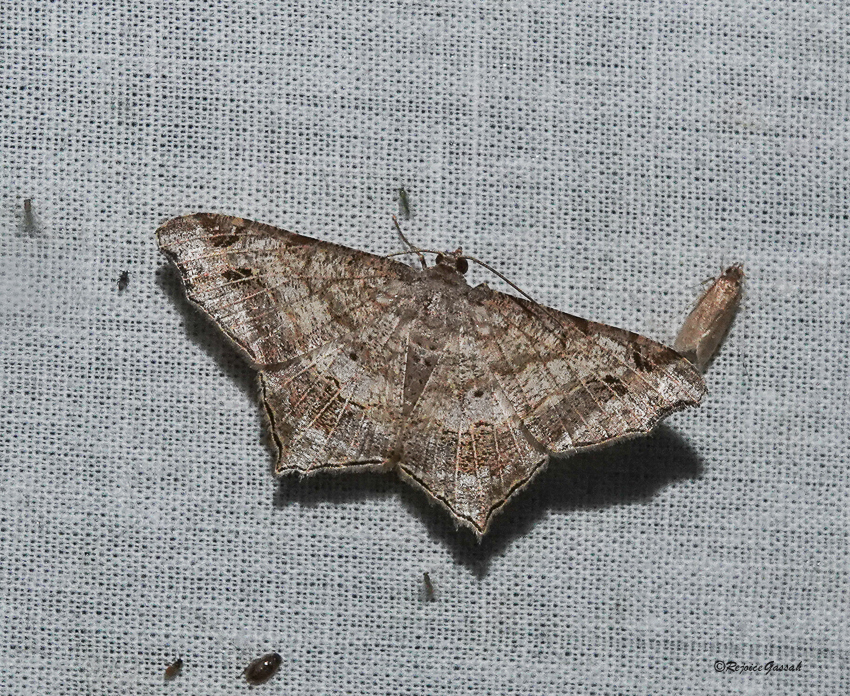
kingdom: Animalia
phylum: Arthropoda
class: Insecta
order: Lepidoptera
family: Geometridae
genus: Chiasmia
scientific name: Chiasmia emersaria
